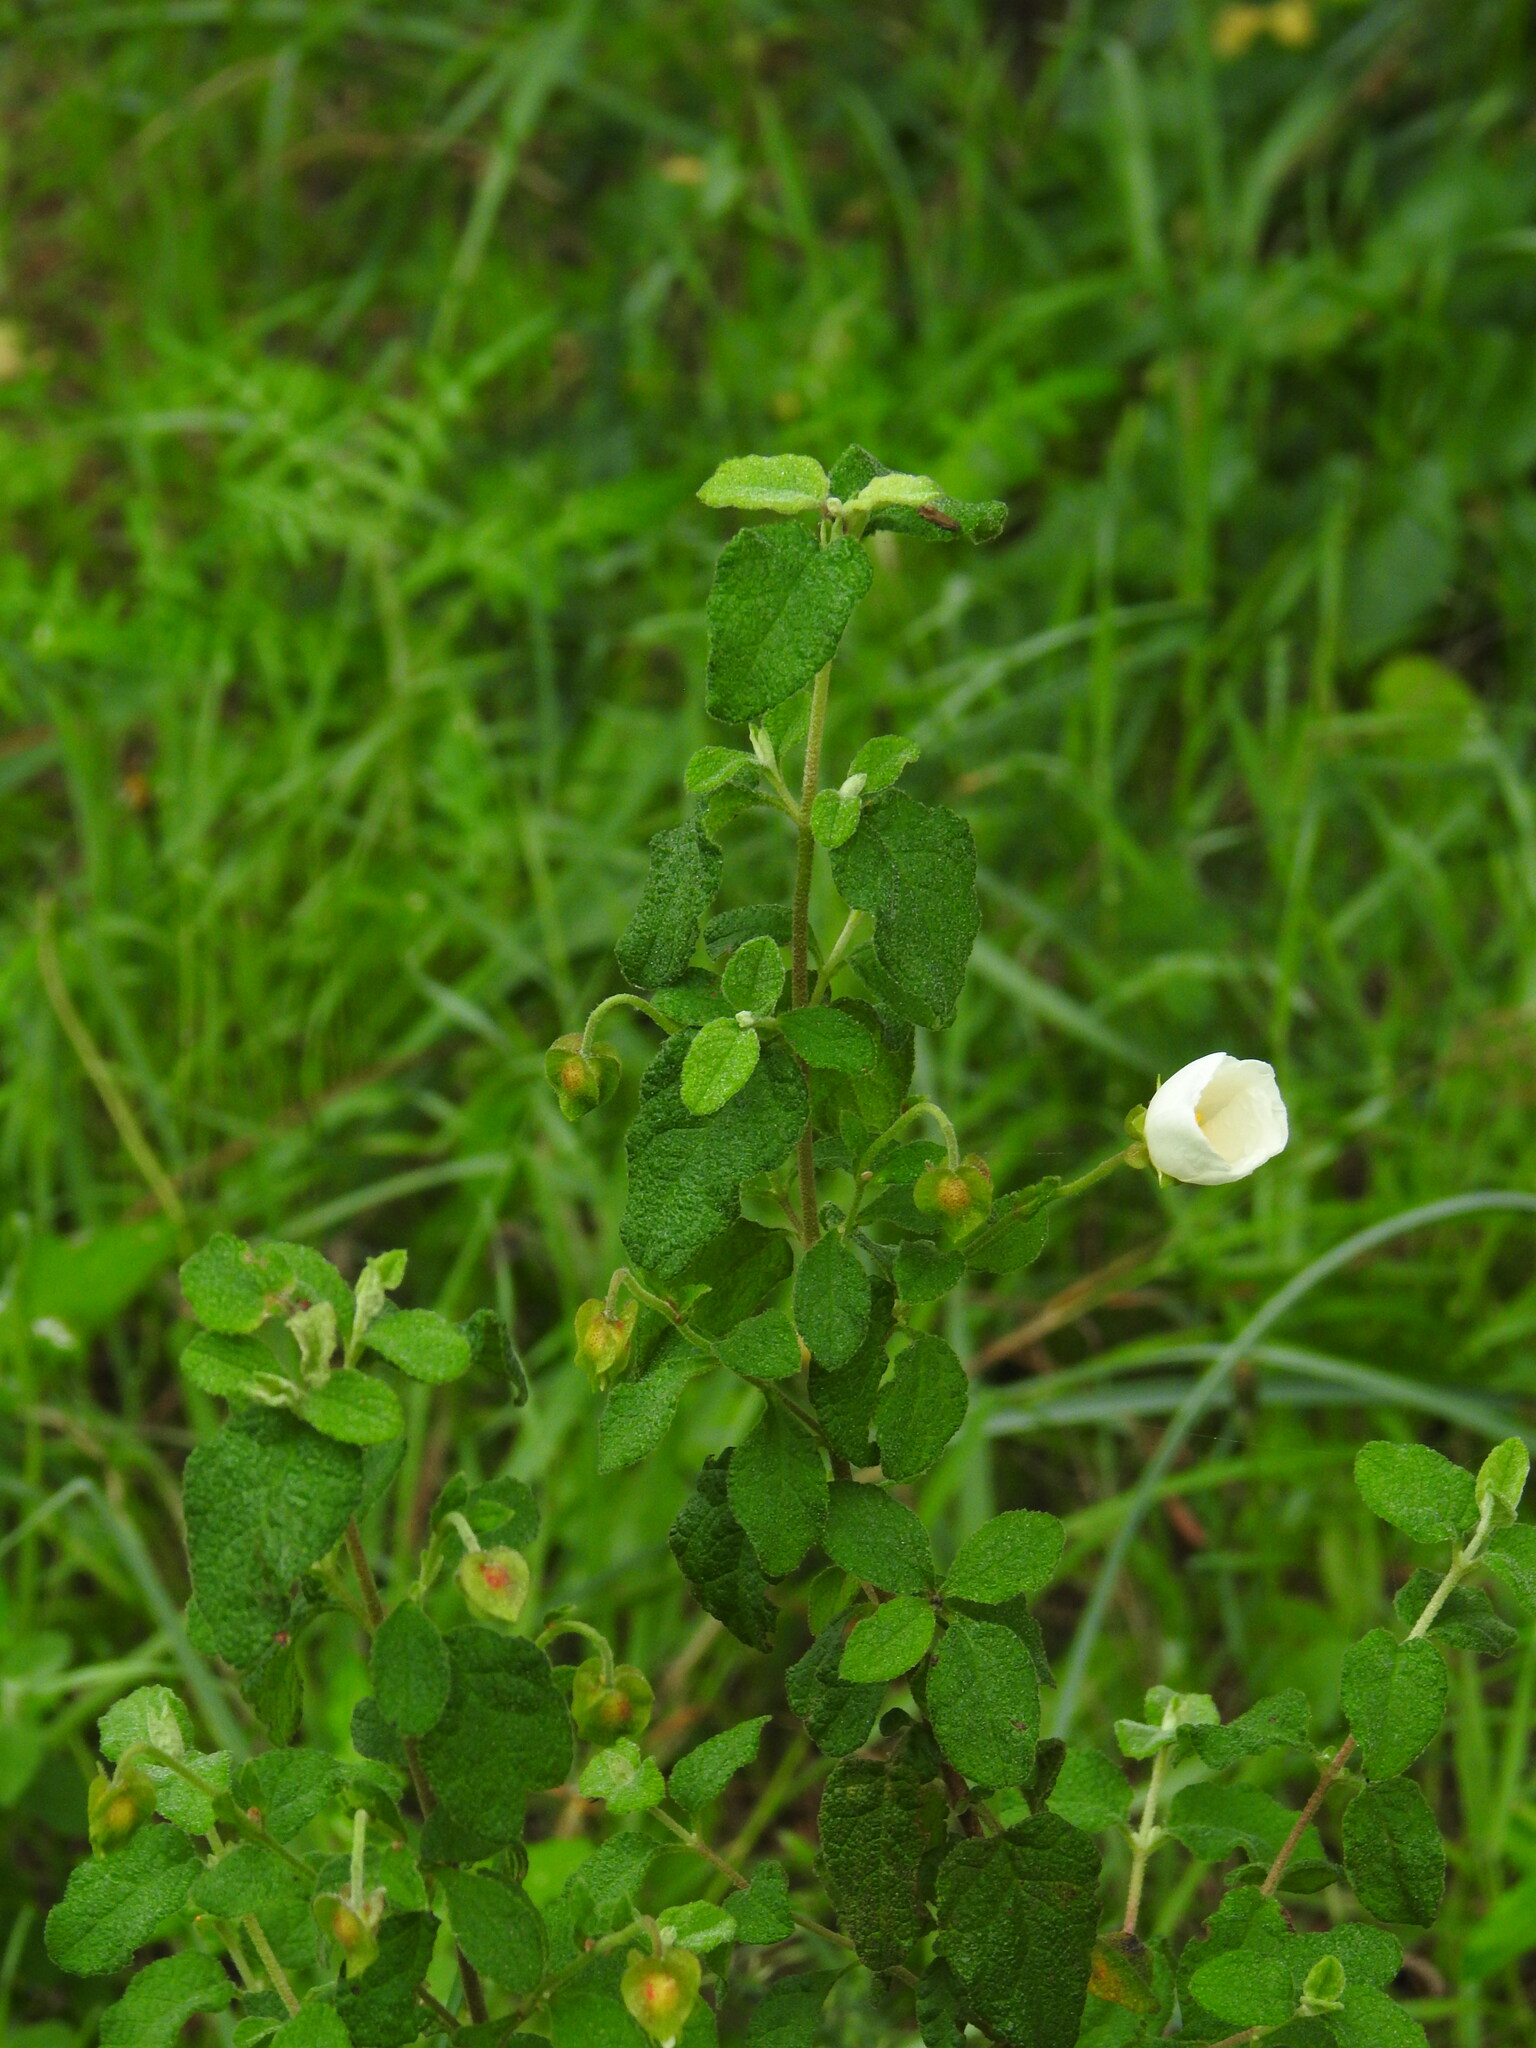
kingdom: Plantae
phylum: Tracheophyta
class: Magnoliopsida
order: Malvales
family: Cistaceae
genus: Cistus
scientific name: Cistus salviifolius
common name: Salvia cistus
